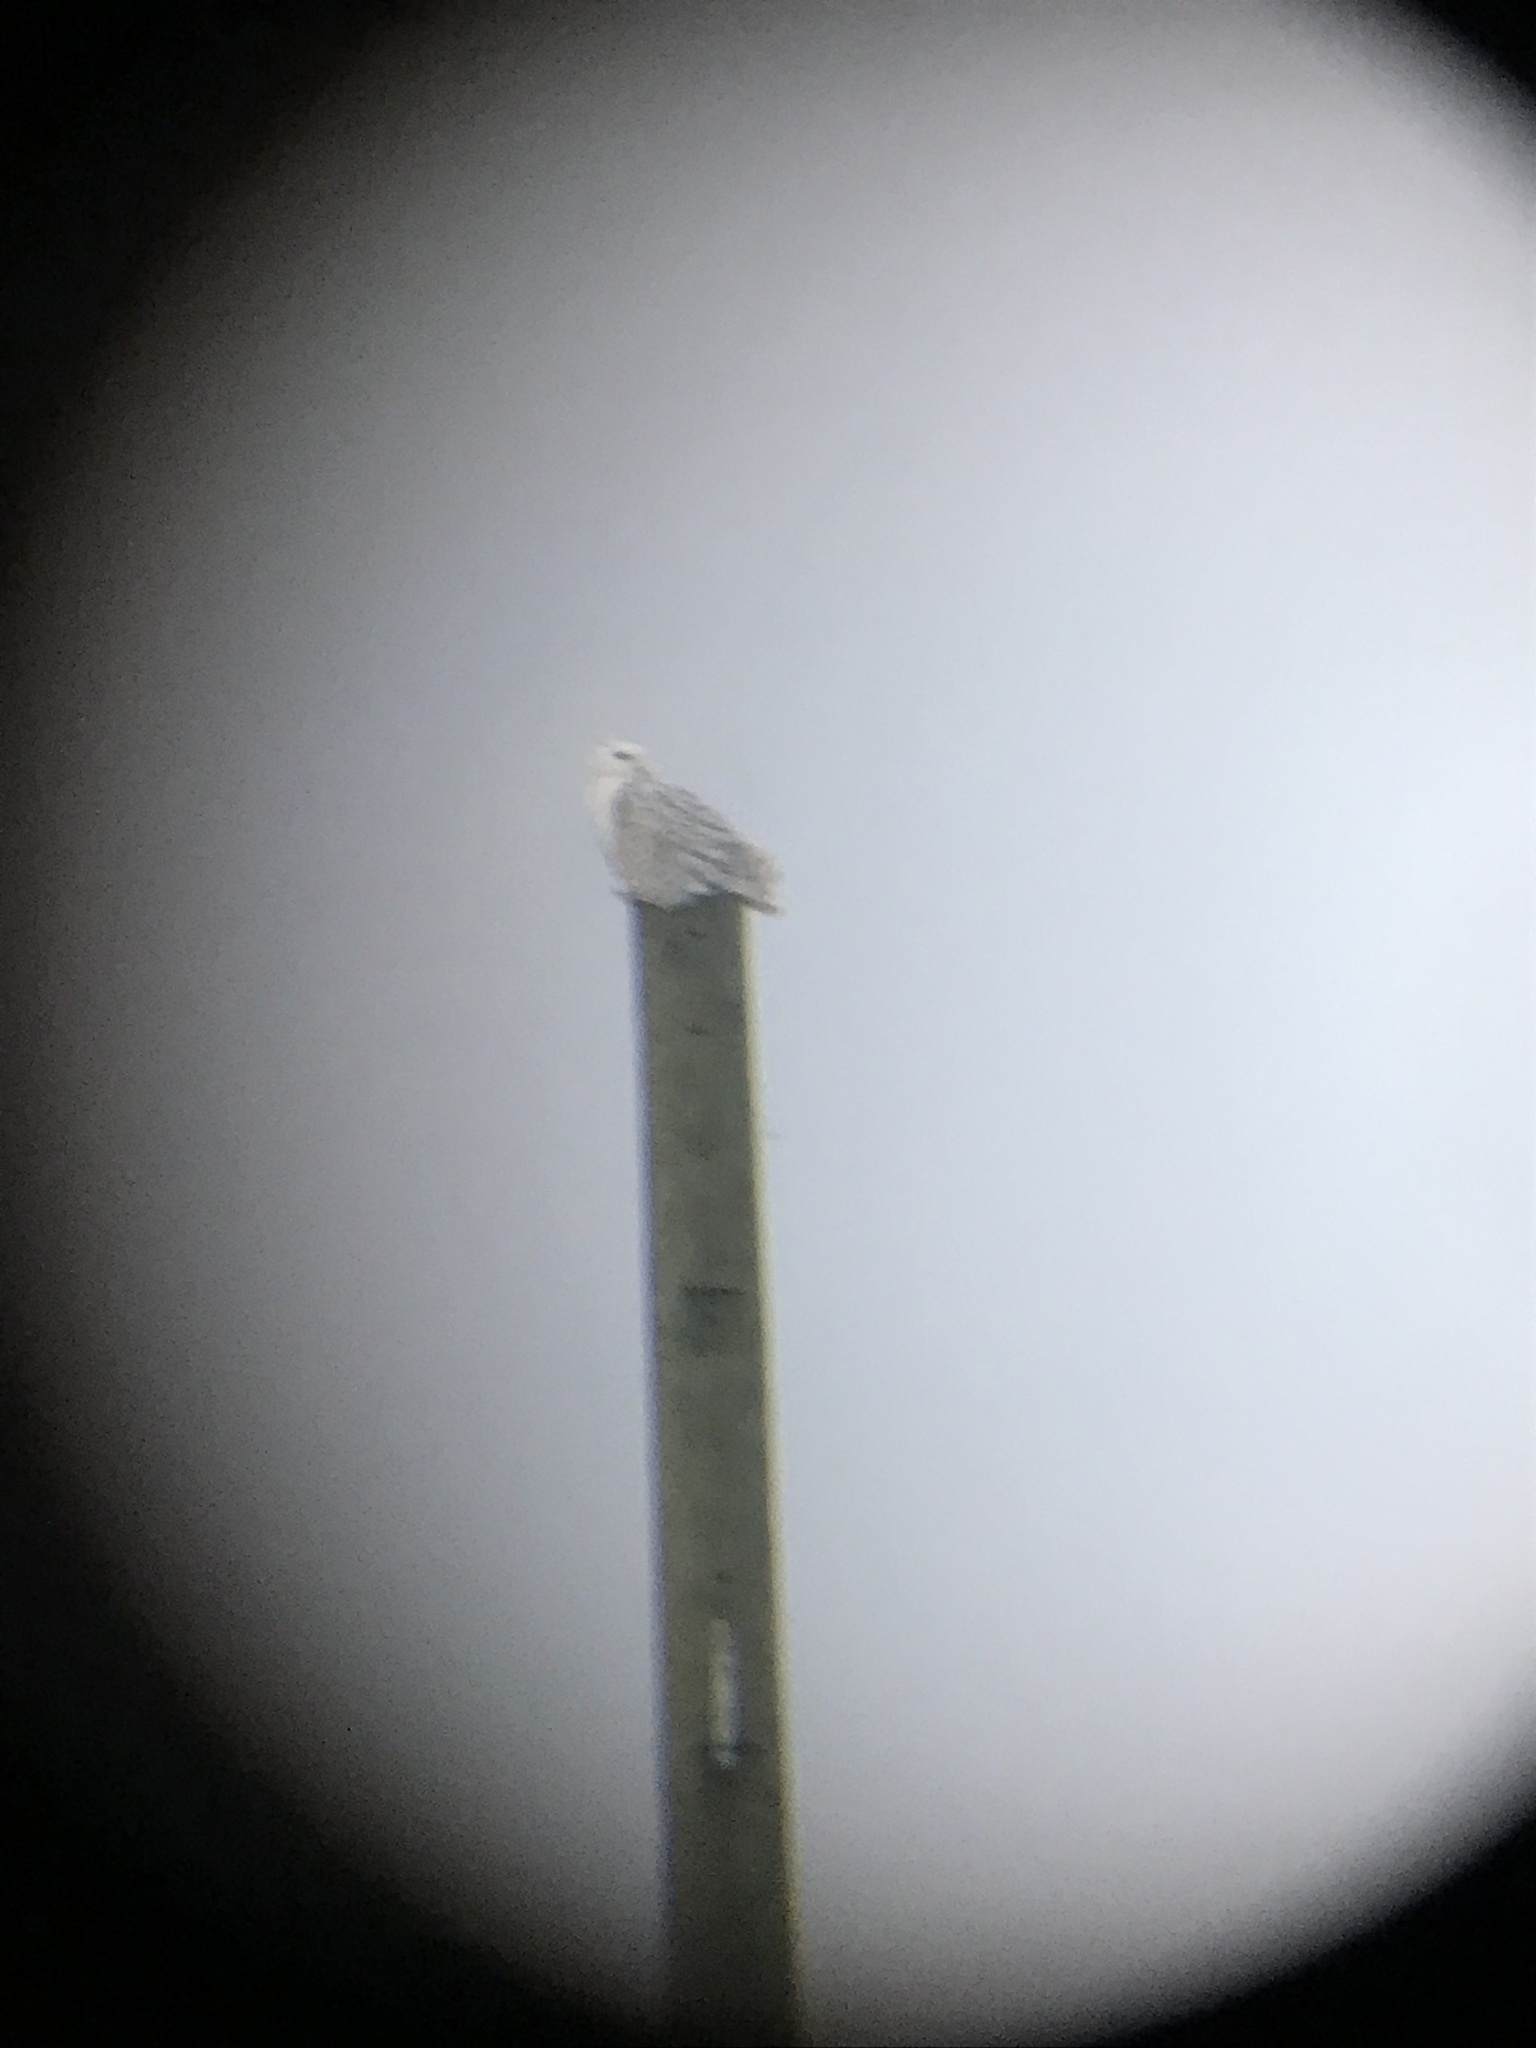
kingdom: Animalia
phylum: Chordata
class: Aves
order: Strigiformes
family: Strigidae
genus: Bubo
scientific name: Bubo scandiacus
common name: Snowy owl
